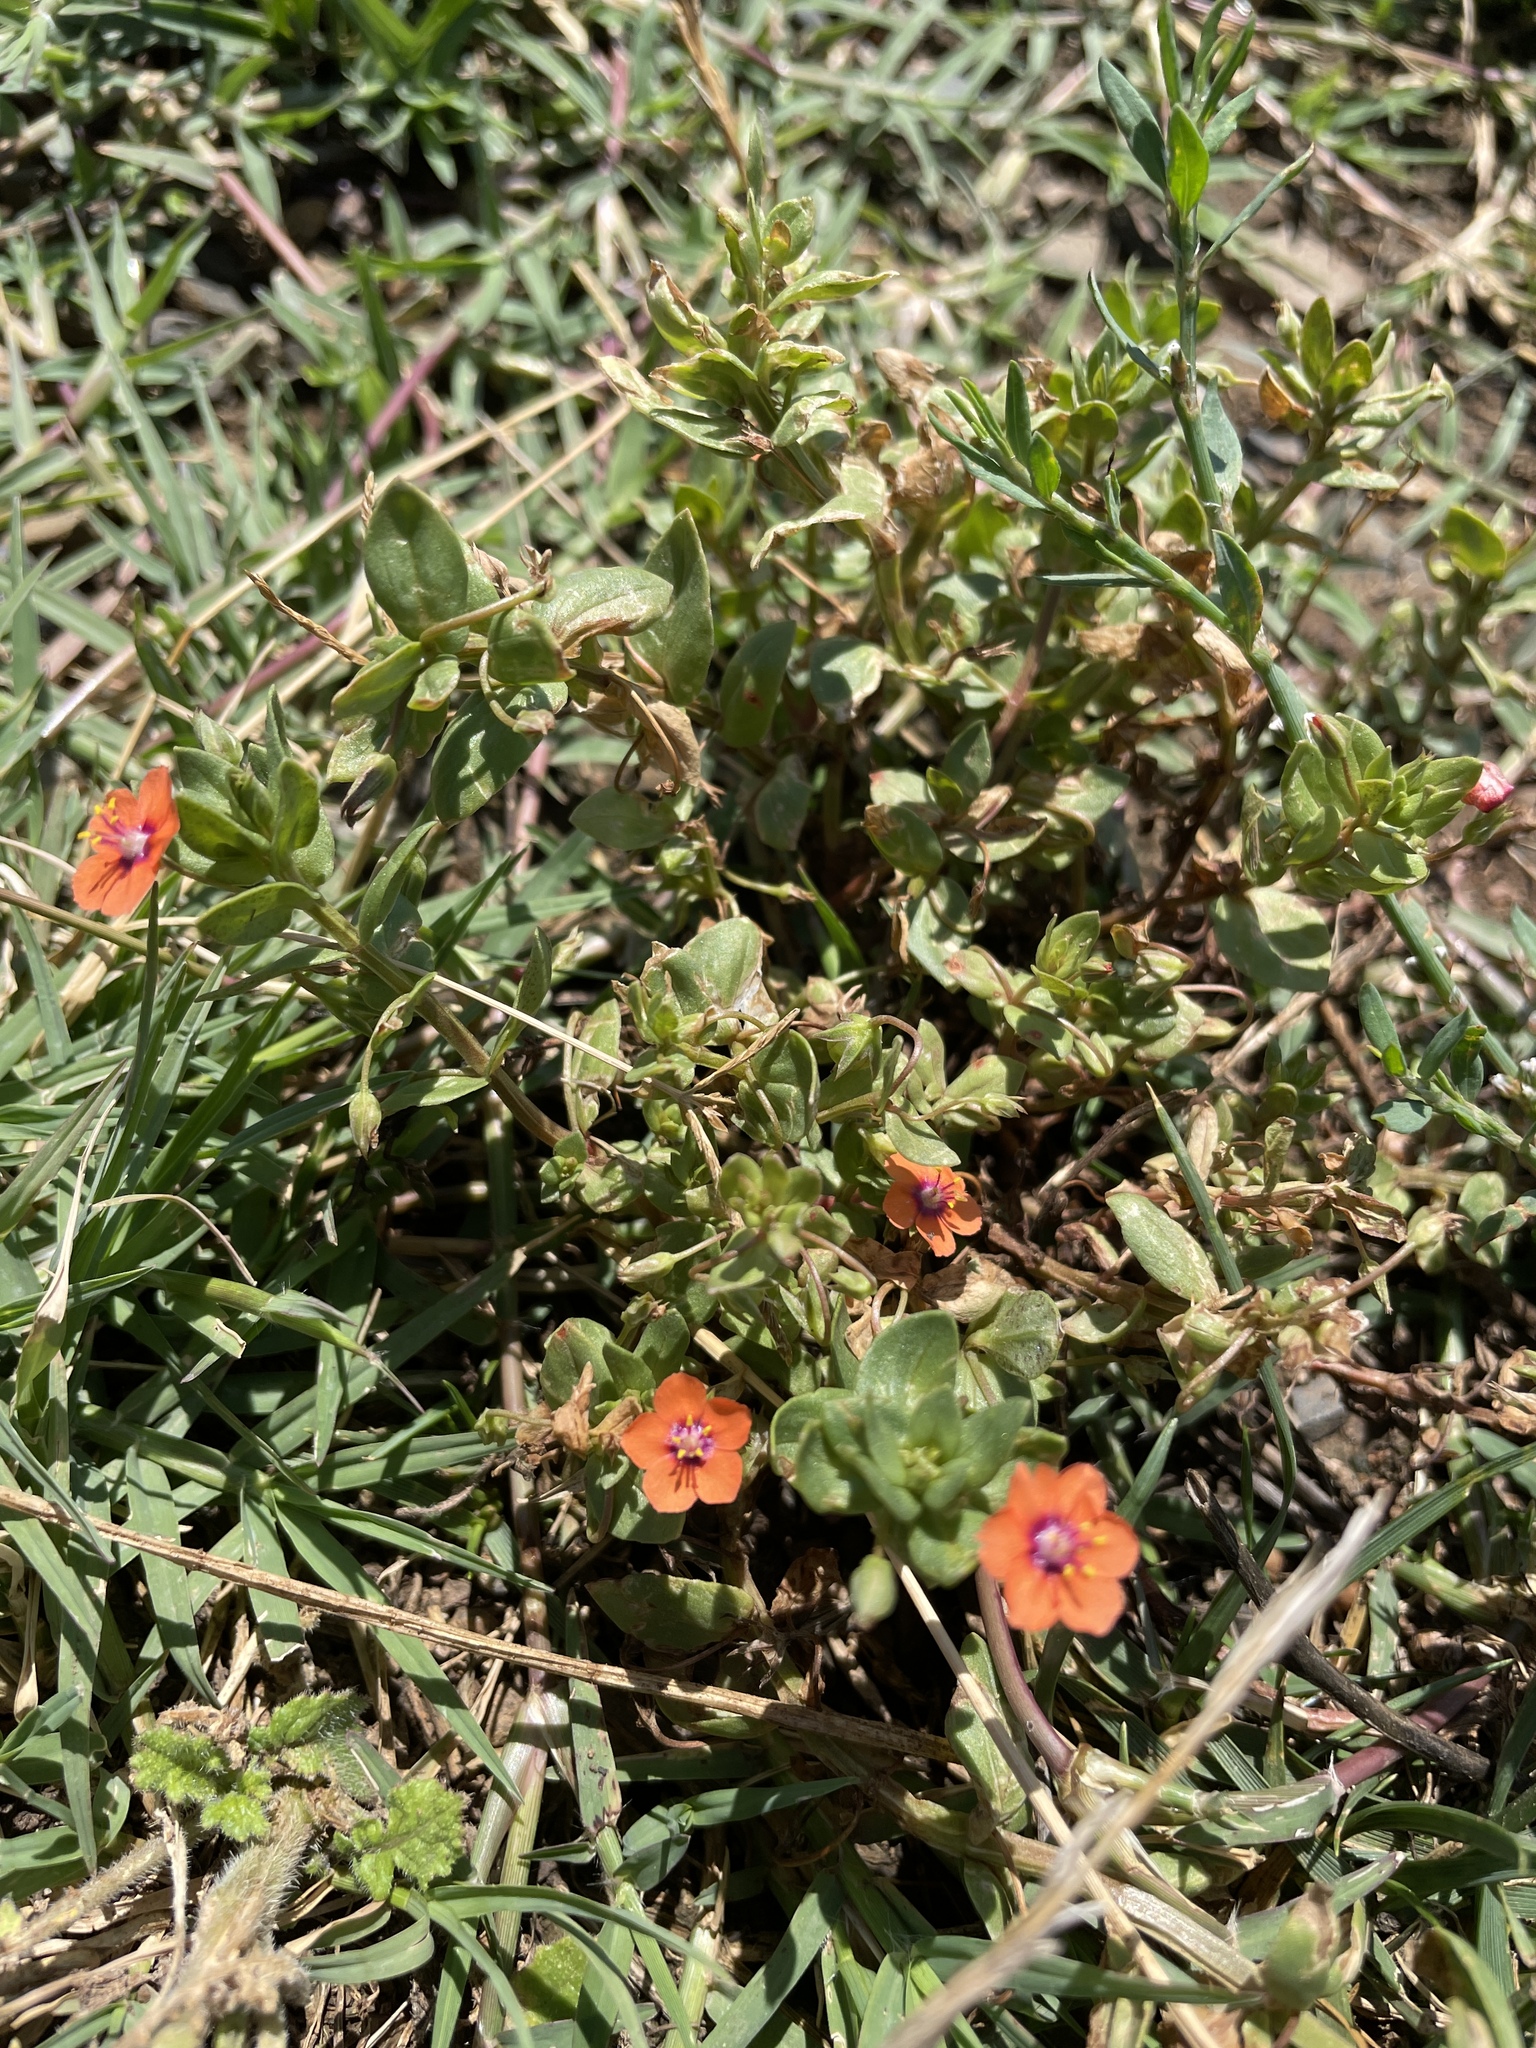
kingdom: Plantae
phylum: Tracheophyta
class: Magnoliopsida
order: Ericales
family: Primulaceae
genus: Lysimachia
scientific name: Lysimachia arvensis
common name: Scarlet pimpernel
